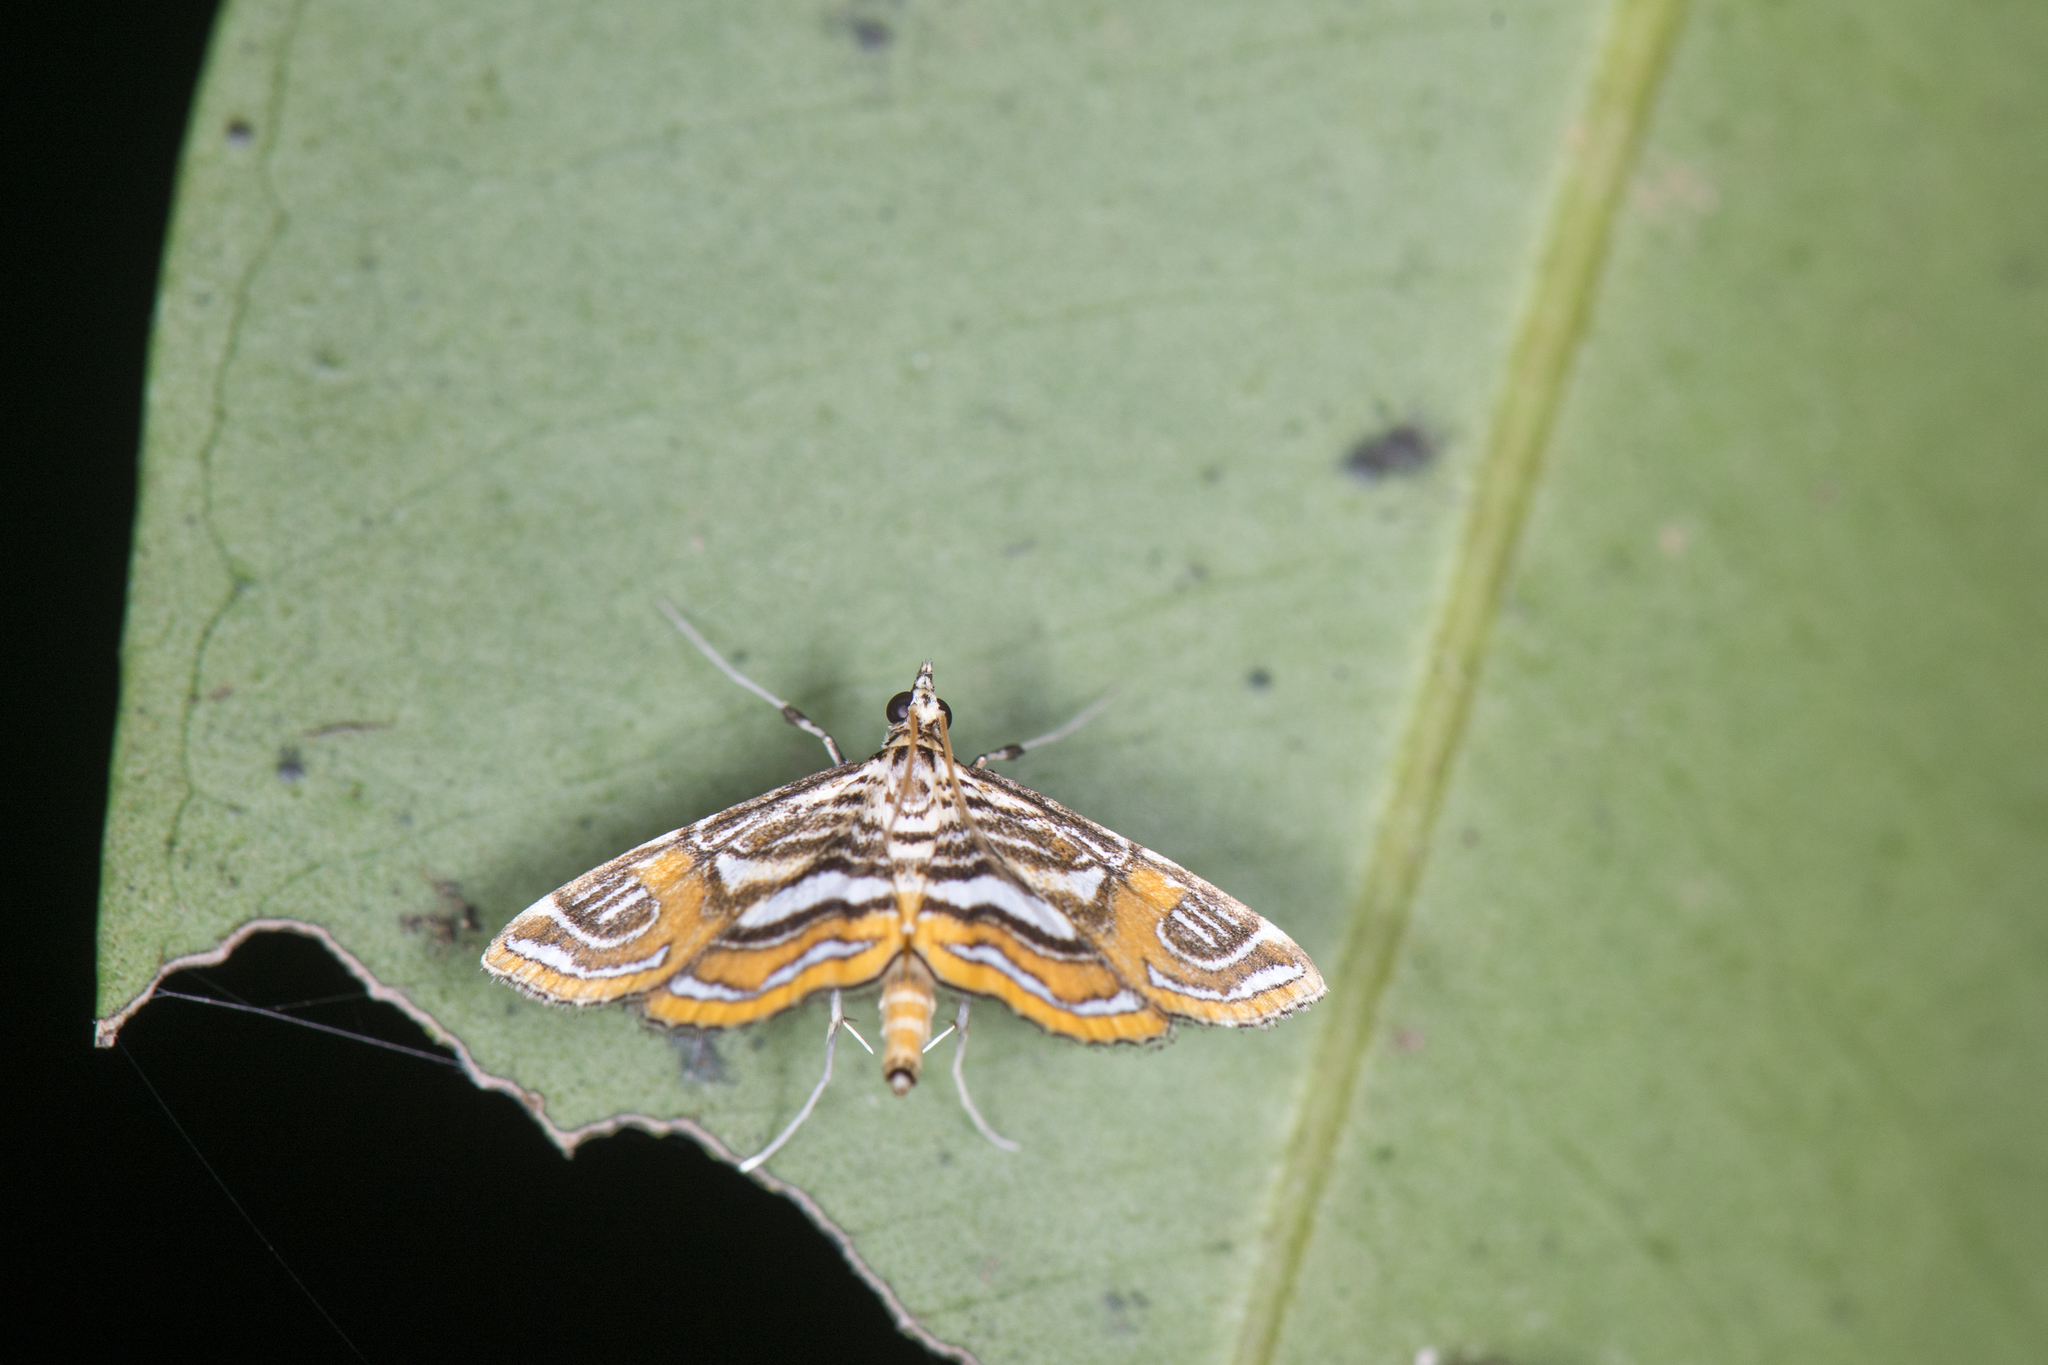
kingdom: Animalia
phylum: Arthropoda
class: Insecta
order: Lepidoptera
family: Crambidae
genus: Paracymoriza
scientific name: Paracymoriza cataclystalis
